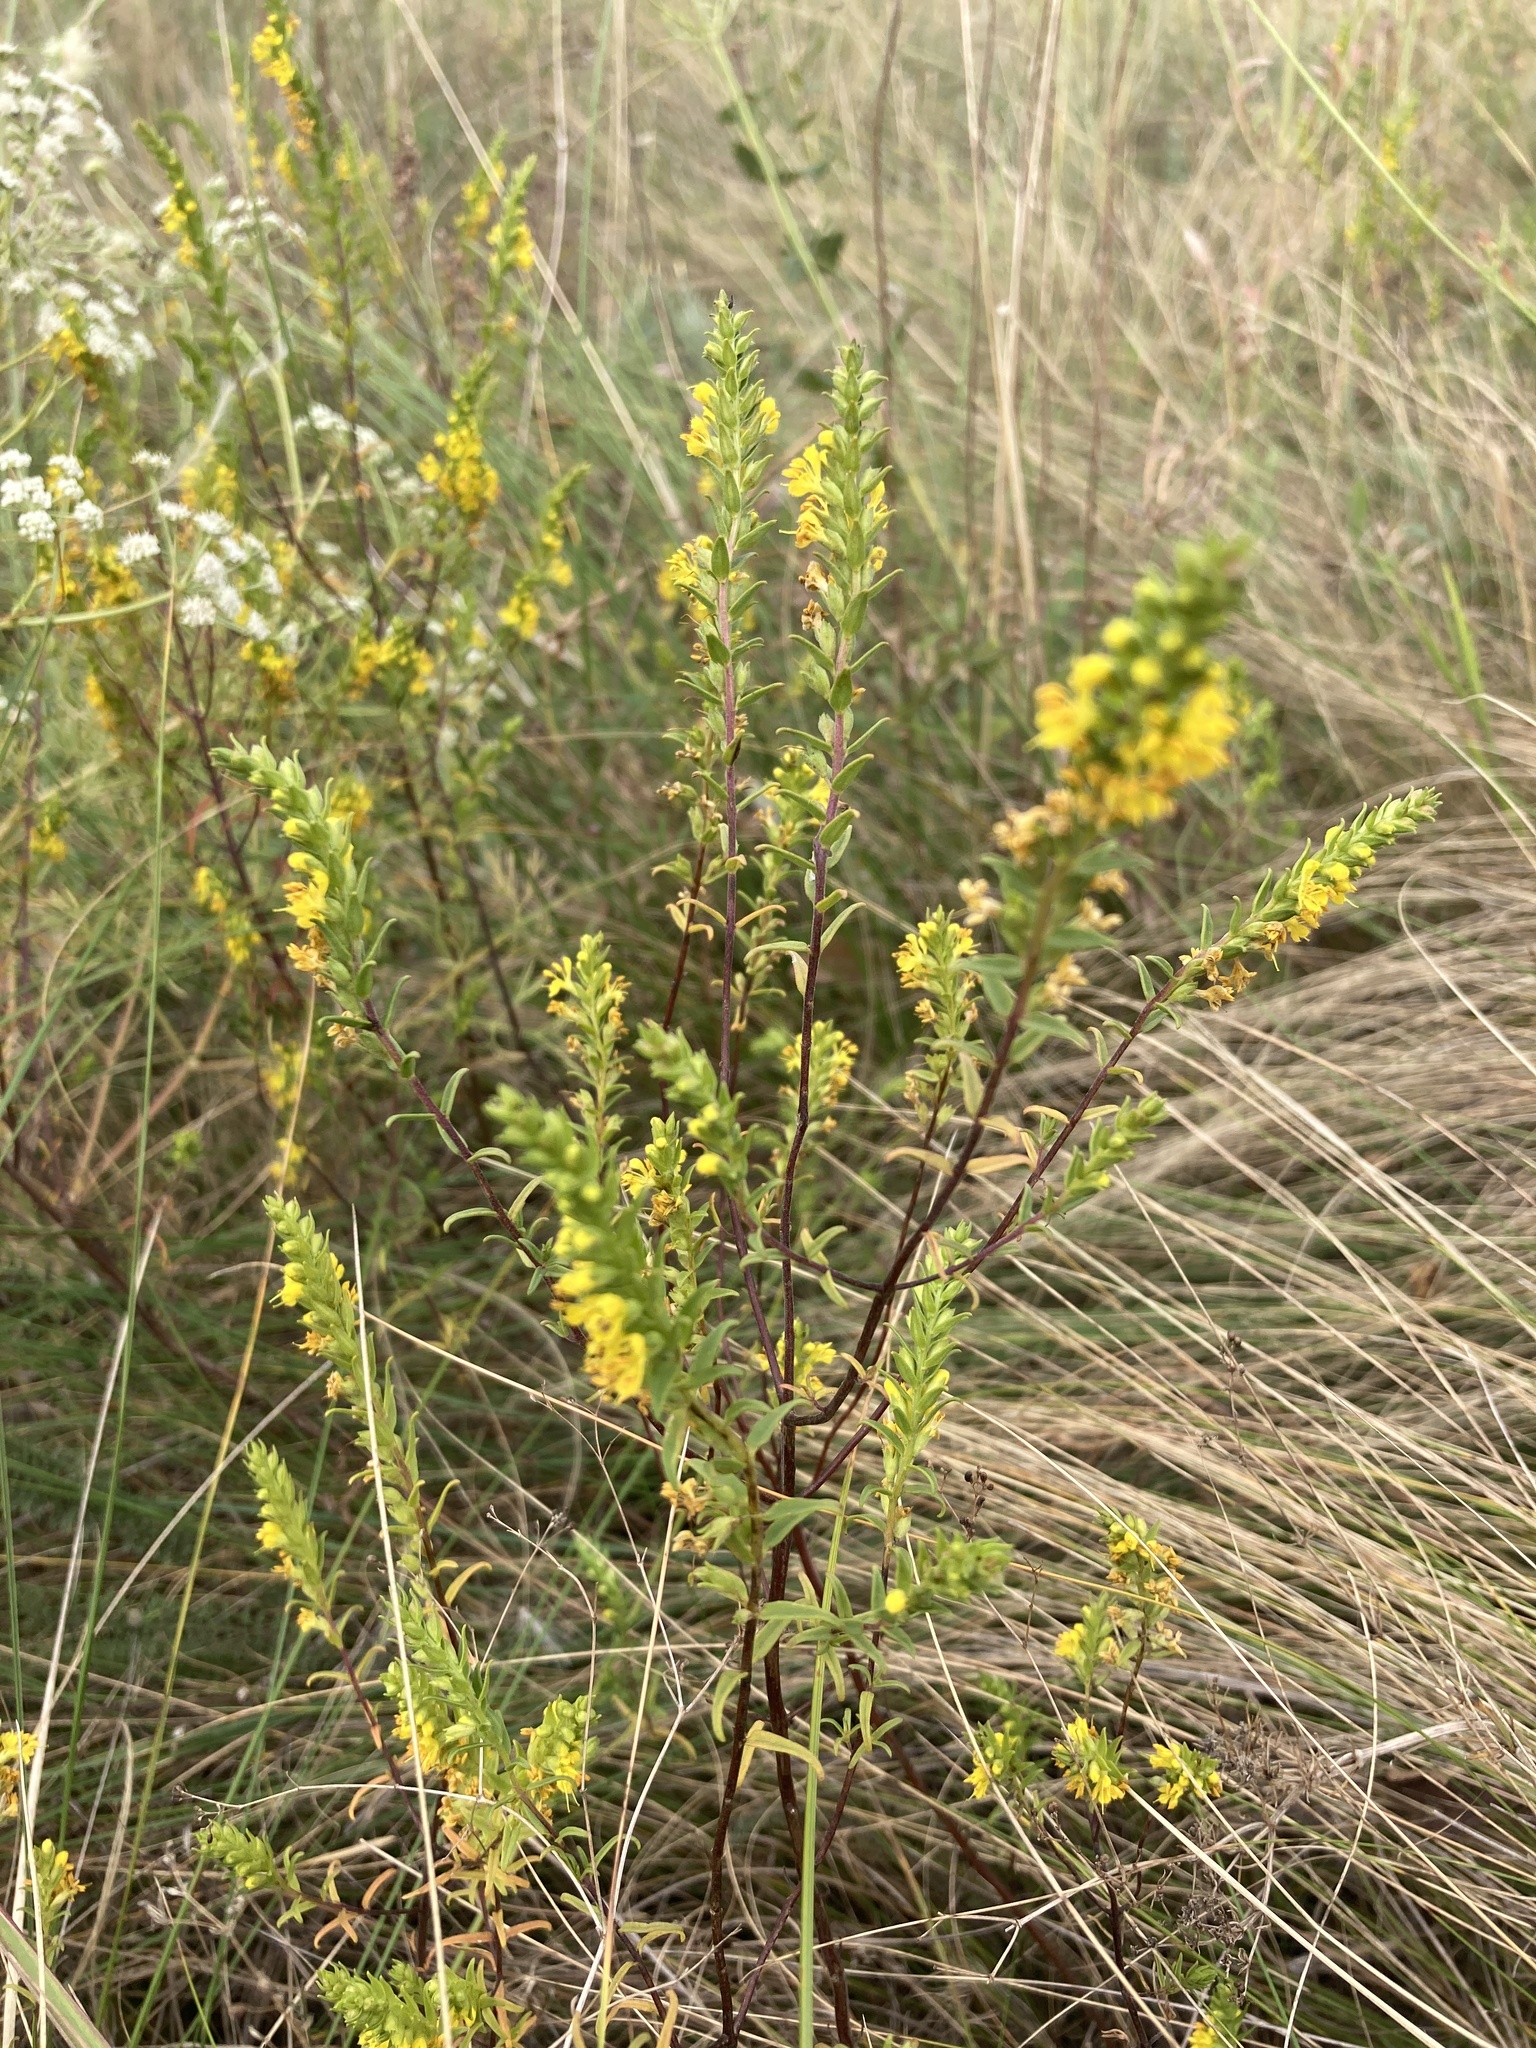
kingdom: Plantae
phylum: Tracheophyta
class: Magnoliopsida
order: Lamiales
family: Orobanchaceae
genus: Odontites
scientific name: Odontites luteus
